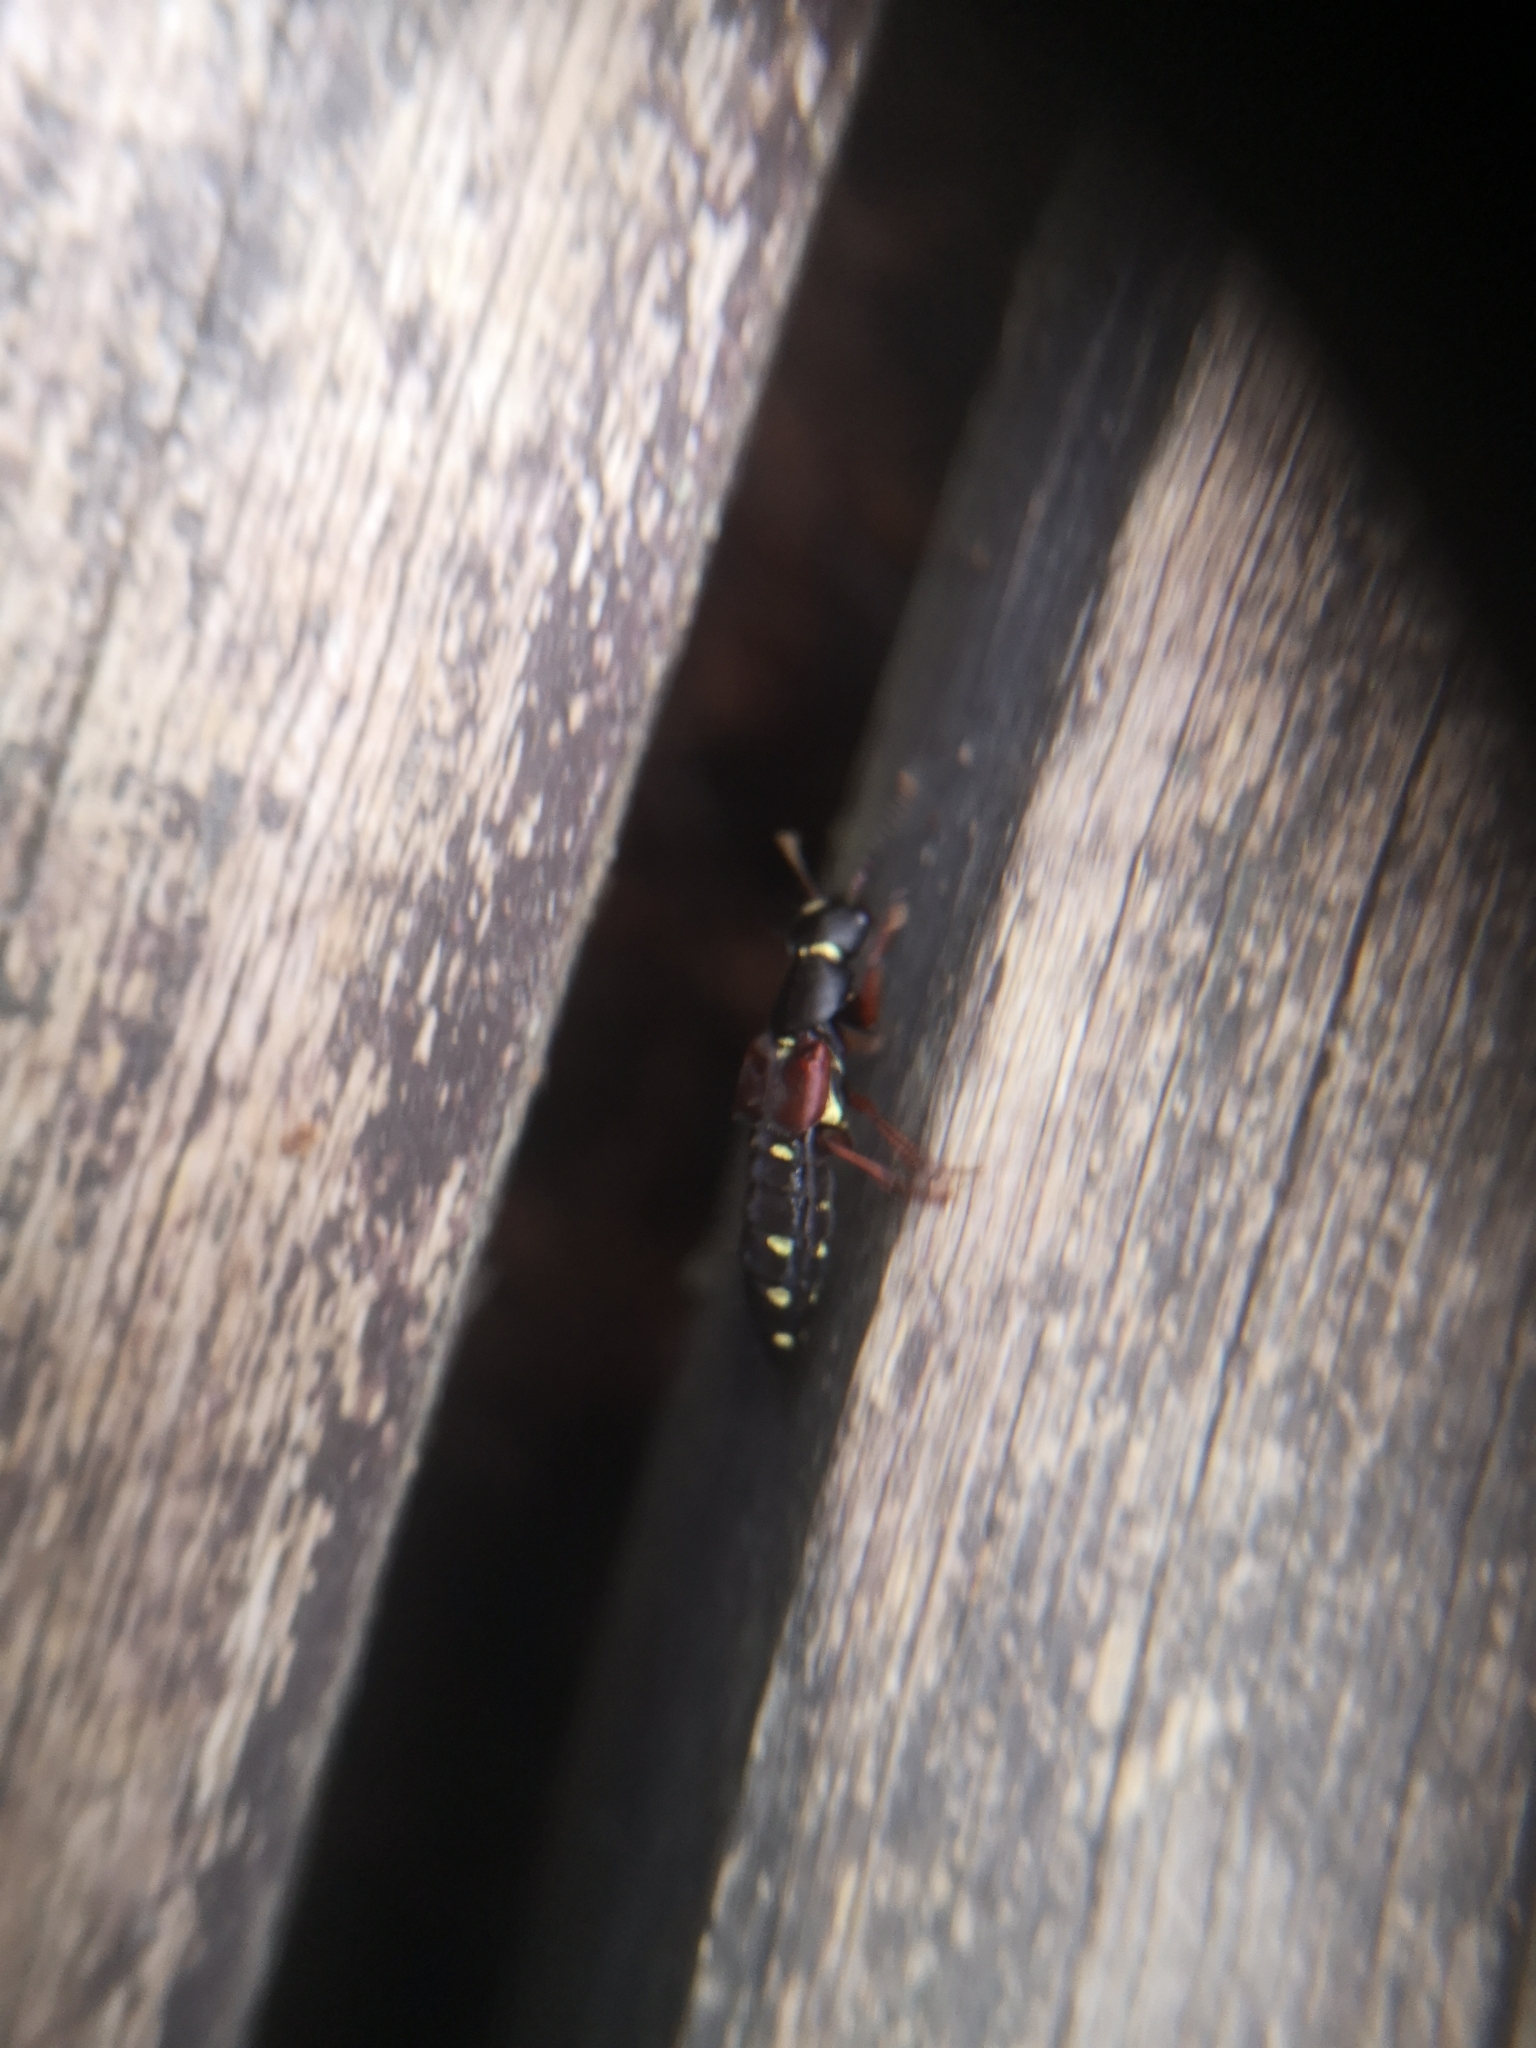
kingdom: Animalia
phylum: Arthropoda
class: Insecta
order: Coleoptera
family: Staphylinidae
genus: Staphylinus
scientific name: Staphylinus ornaticauda
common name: Staph beetle
